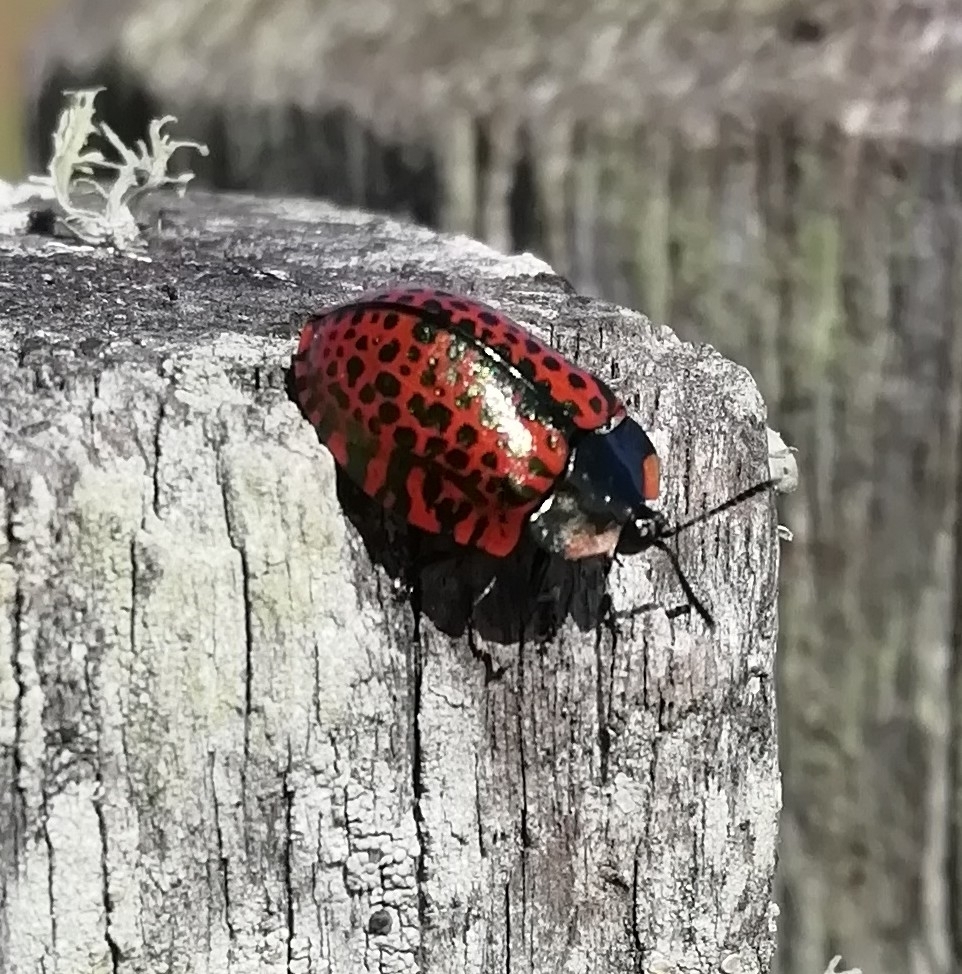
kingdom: Animalia
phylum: Arthropoda
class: Insecta
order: Coleoptera
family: Chrysomelidae
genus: Stolas
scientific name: Stolas lacordairei
